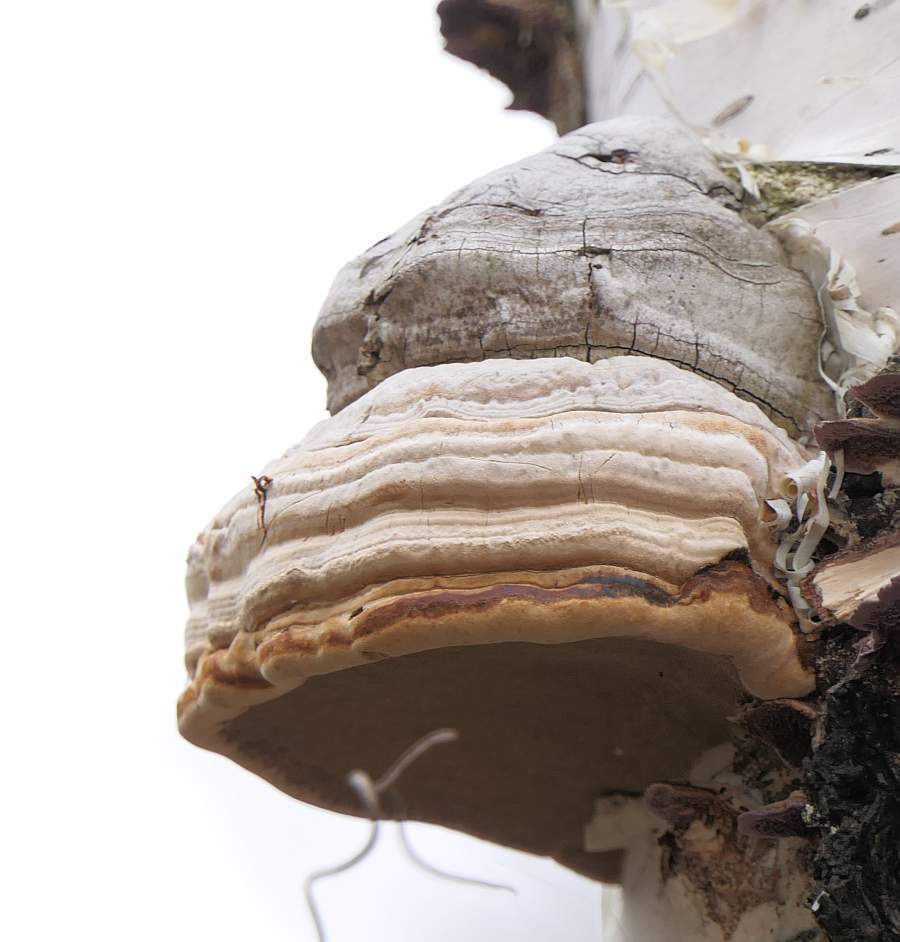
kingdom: Fungi
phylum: Basidiomycota
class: Agaricomycetes
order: Polyporales
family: Polyporaceae
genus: Fomes
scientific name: Fomes fomentarius
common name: Hoof fungus
